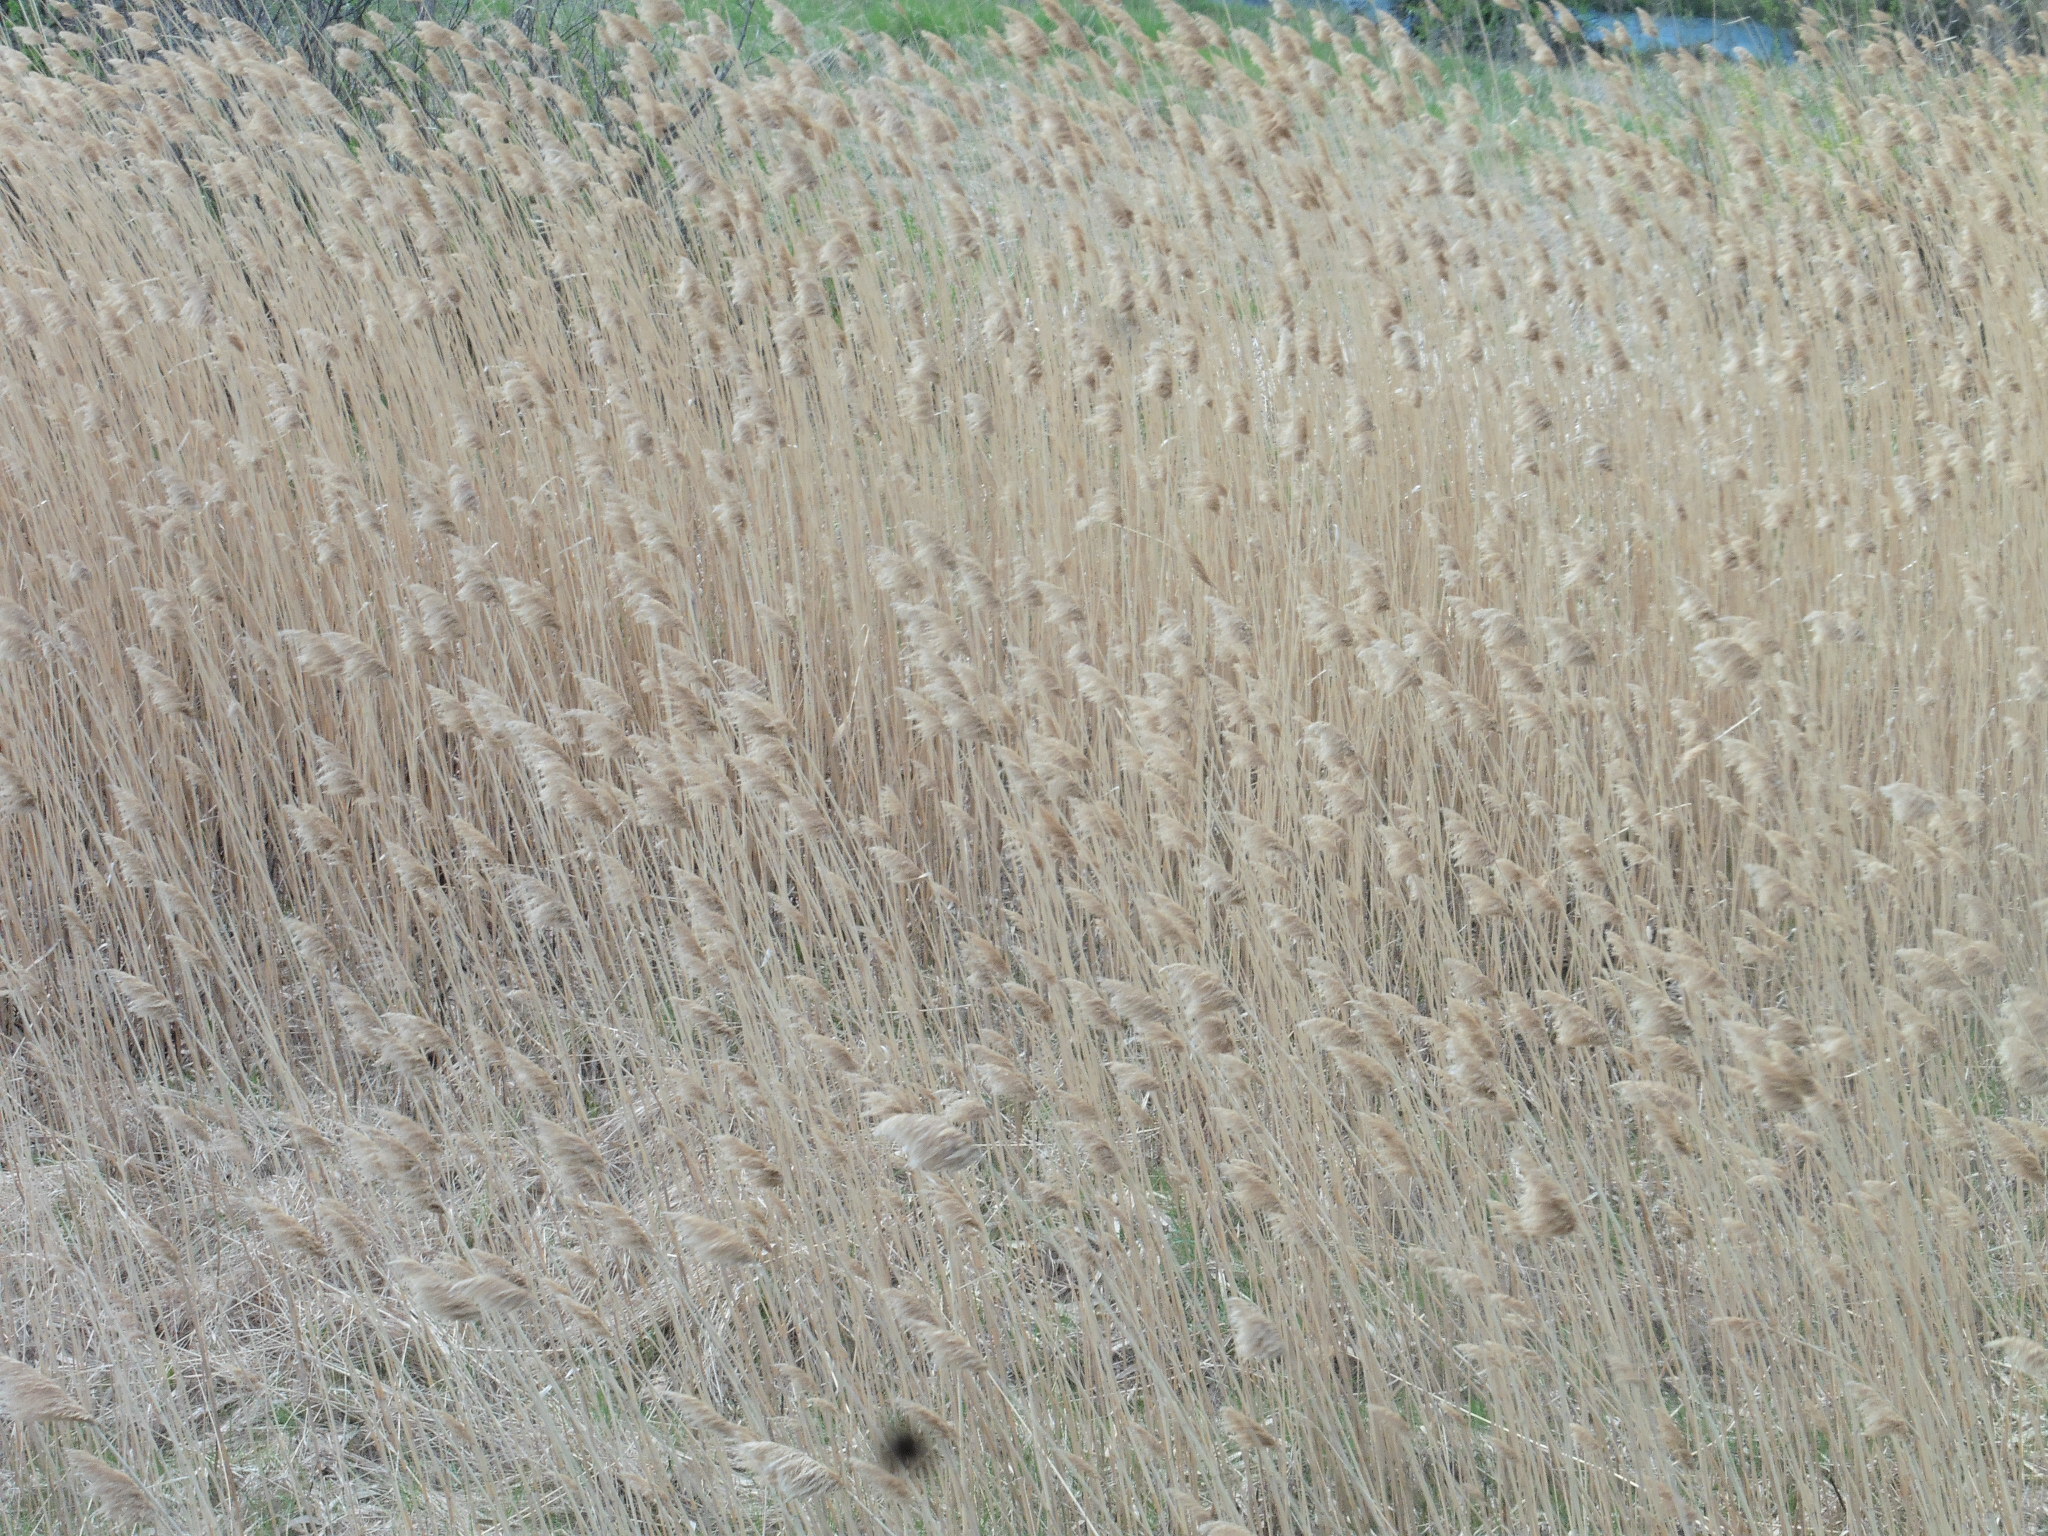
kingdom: Plantae
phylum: Tracheophyta
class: Liliopsida
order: Poales
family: Poaceae
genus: Phragmites
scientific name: Phragmites australis
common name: Common reed
